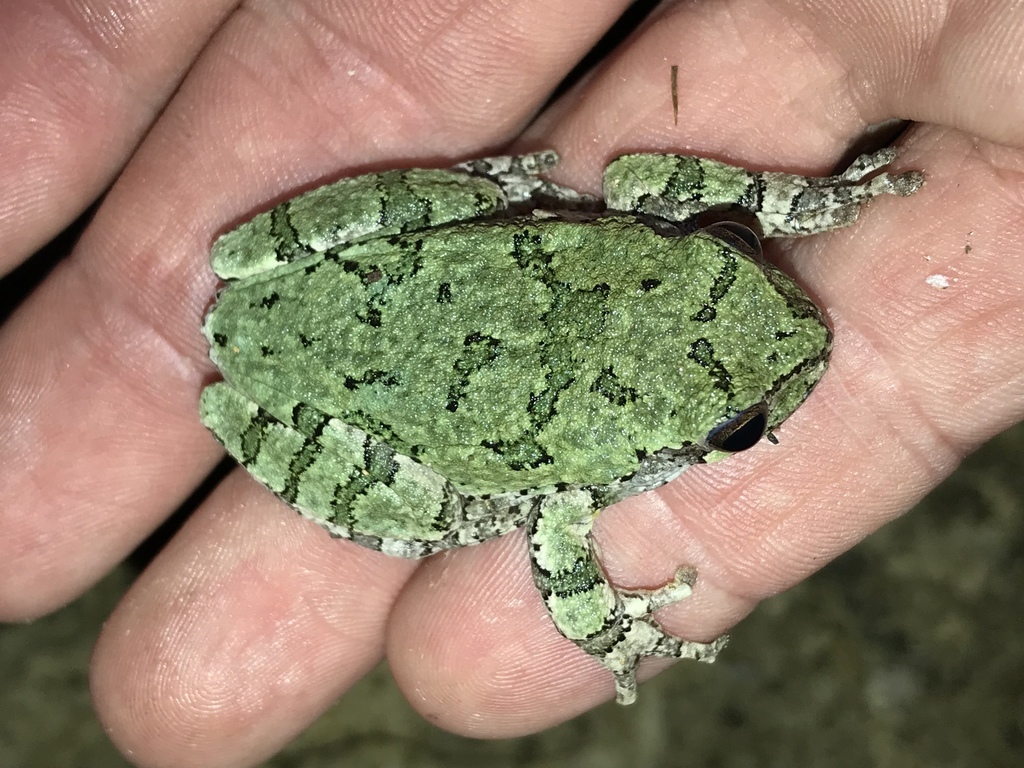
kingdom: Animalia
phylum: Chordata
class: Amphibia
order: Anura
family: Hylidae
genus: Dryophytes
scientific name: Dryophytes chrysoscelis
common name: Cope's gray treefrog
